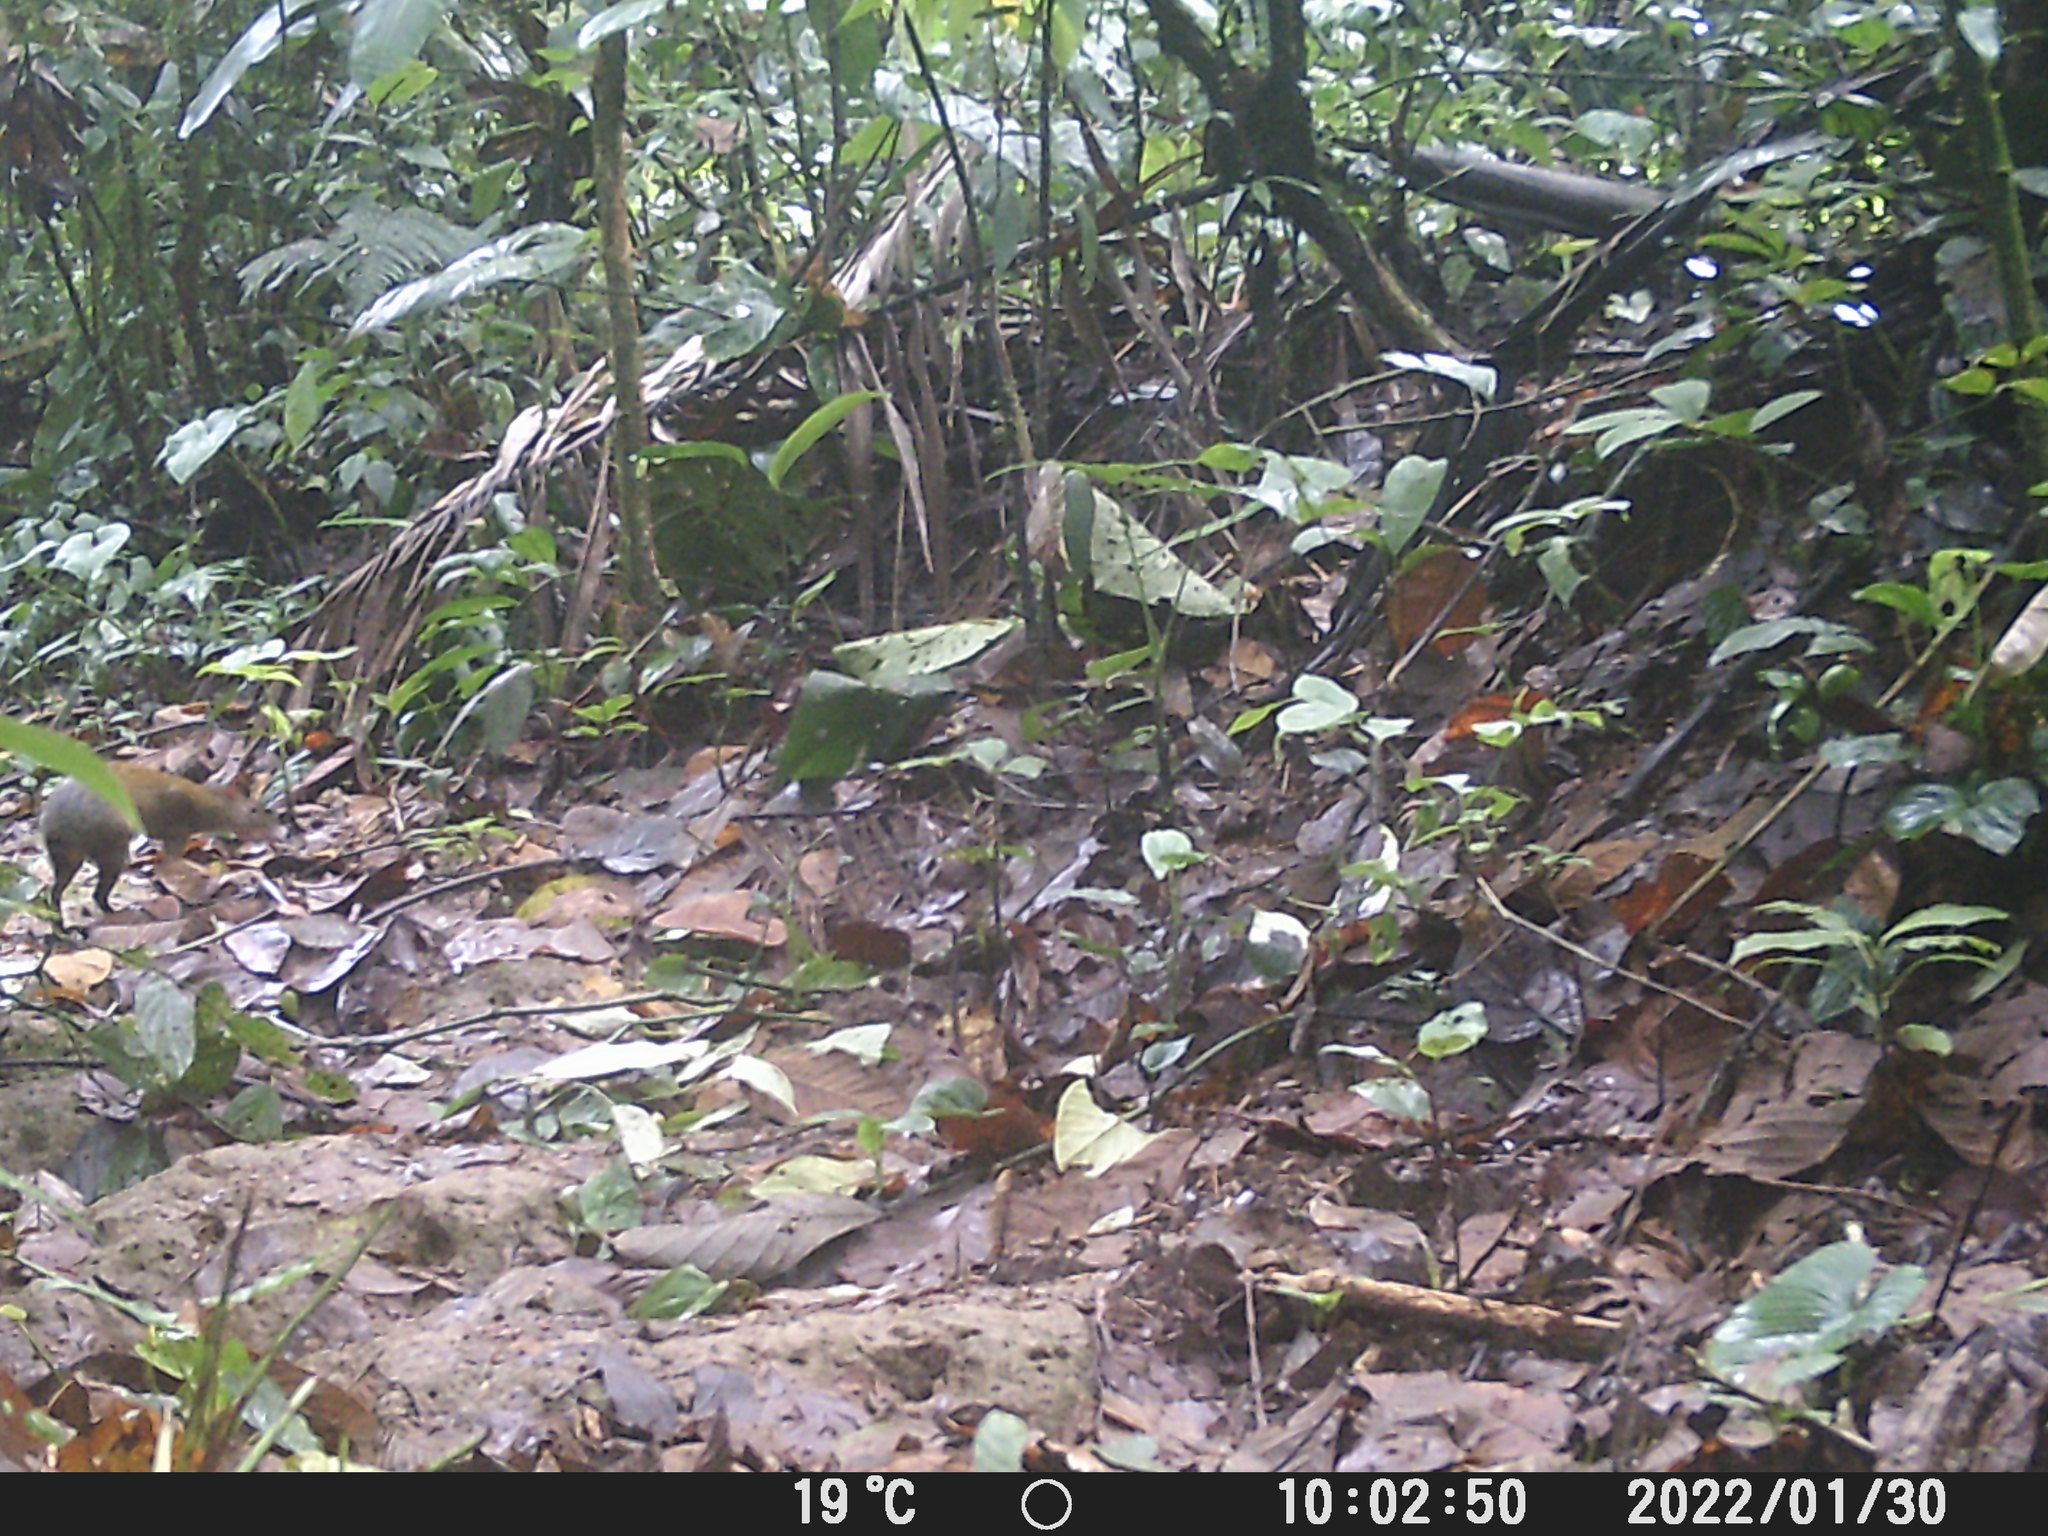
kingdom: Animalia
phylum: Chordata
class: Mammalia
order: Rodentia
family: Dasyproctidae
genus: Dasyprocta
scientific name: Dasyprocta punctata
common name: Central american agouti
